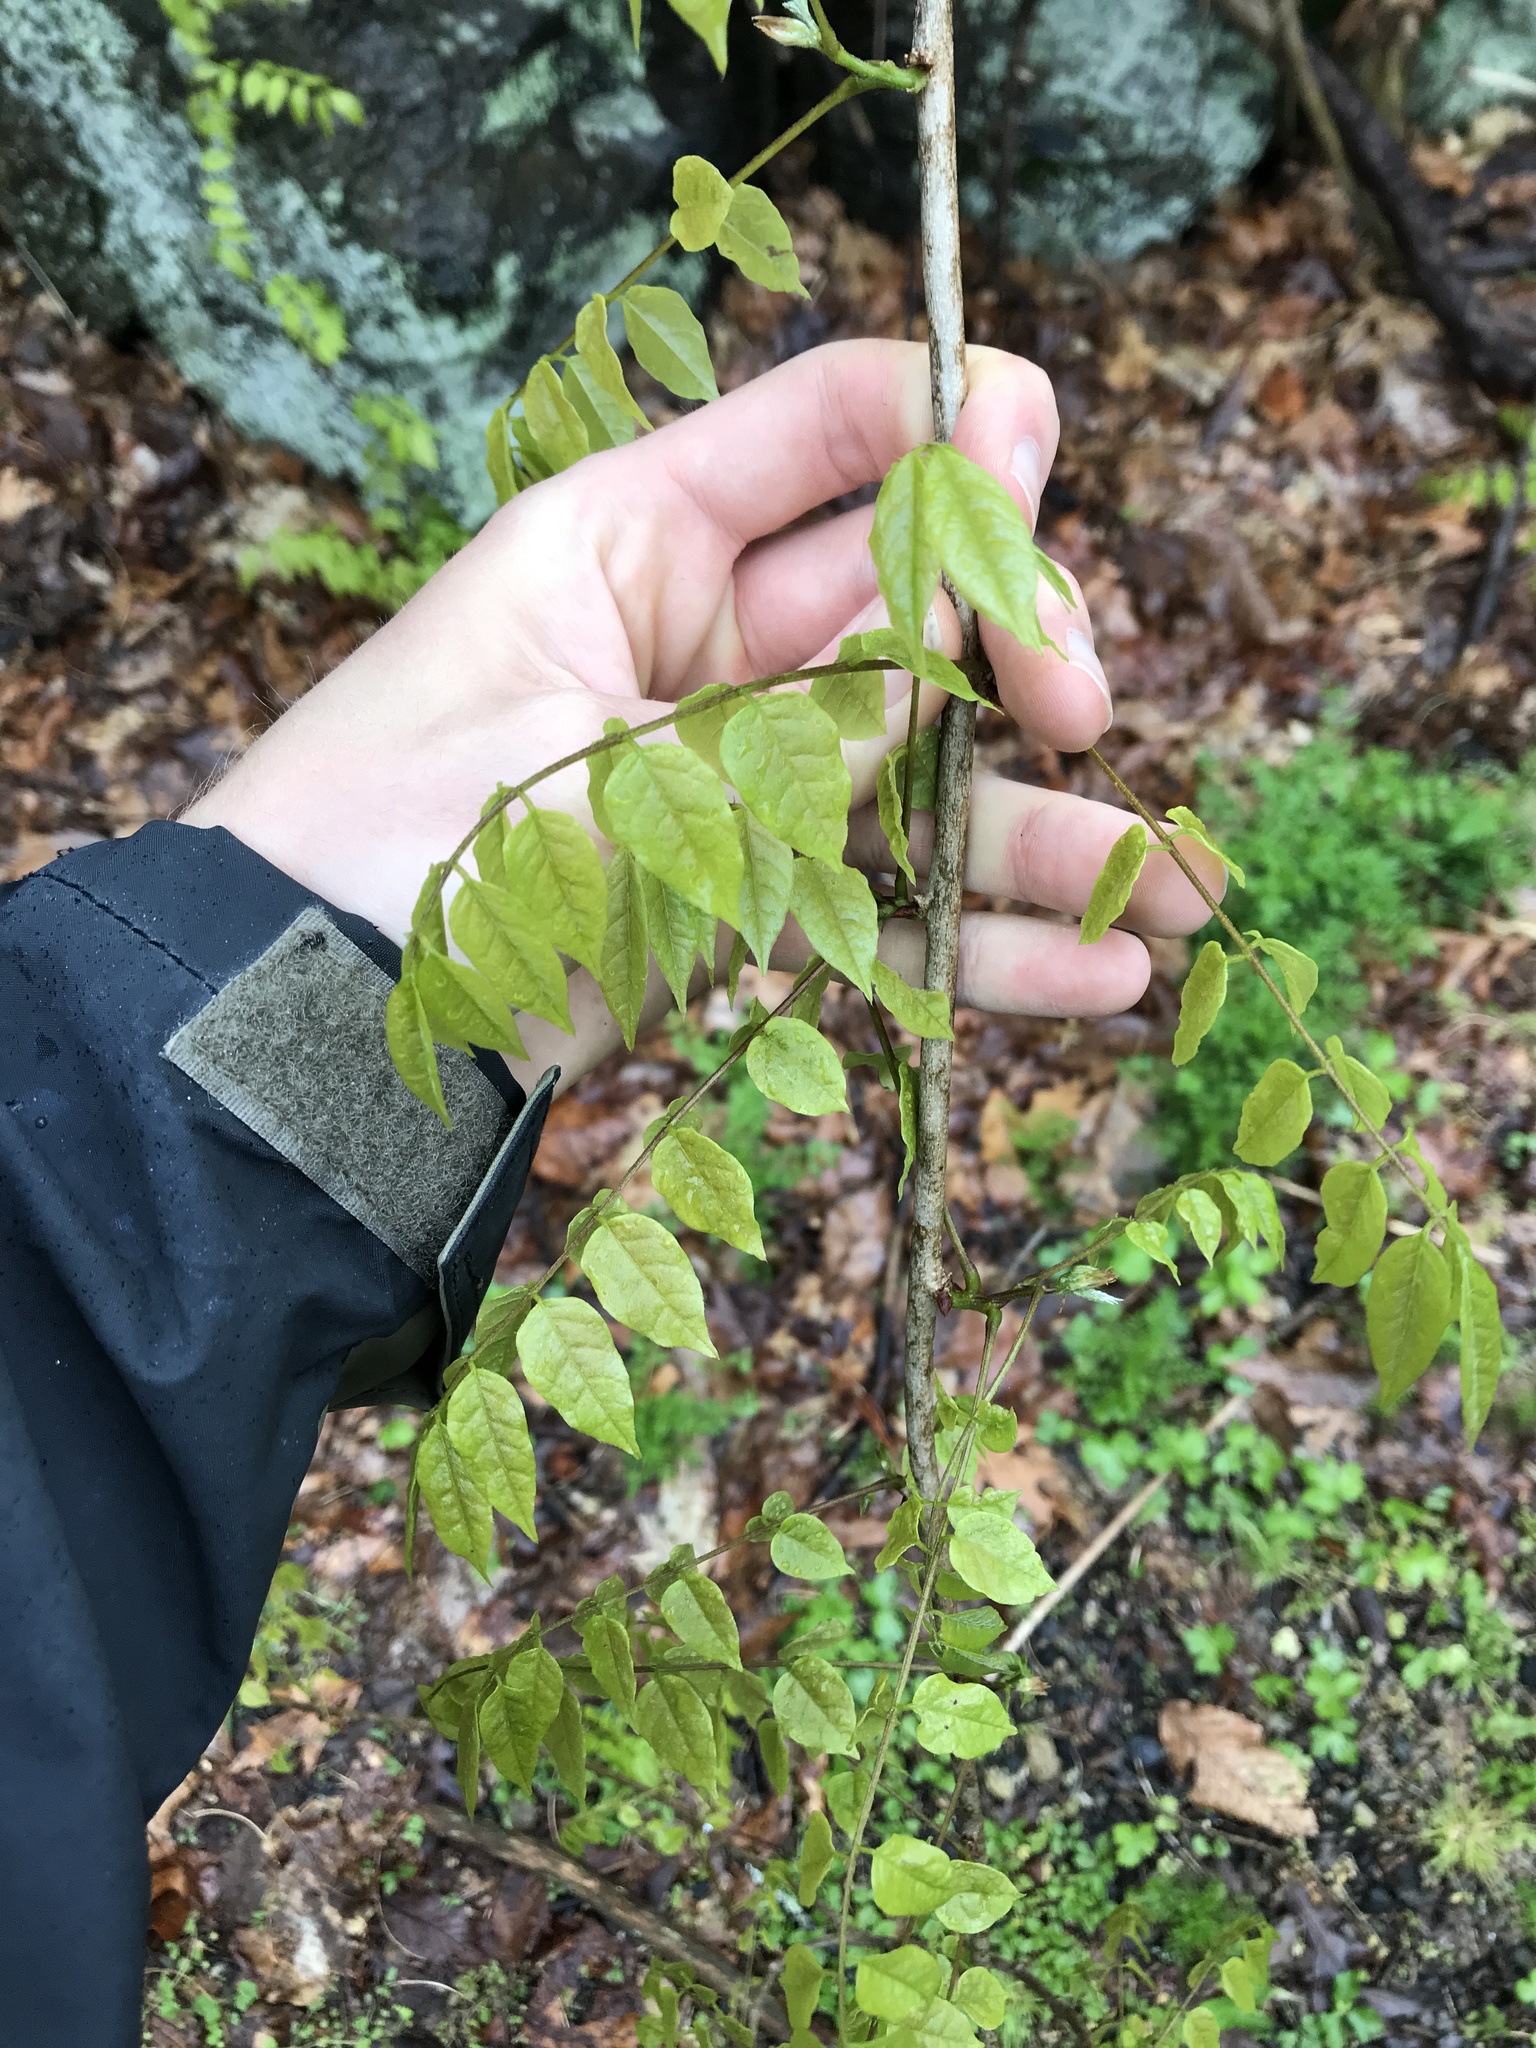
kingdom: Plantae
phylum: Tracheophyta
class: Magnoliopsida
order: Fabales
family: Fabaceae
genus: Wisteria
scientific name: Wisteria sinensis
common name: Chinese wisteria
